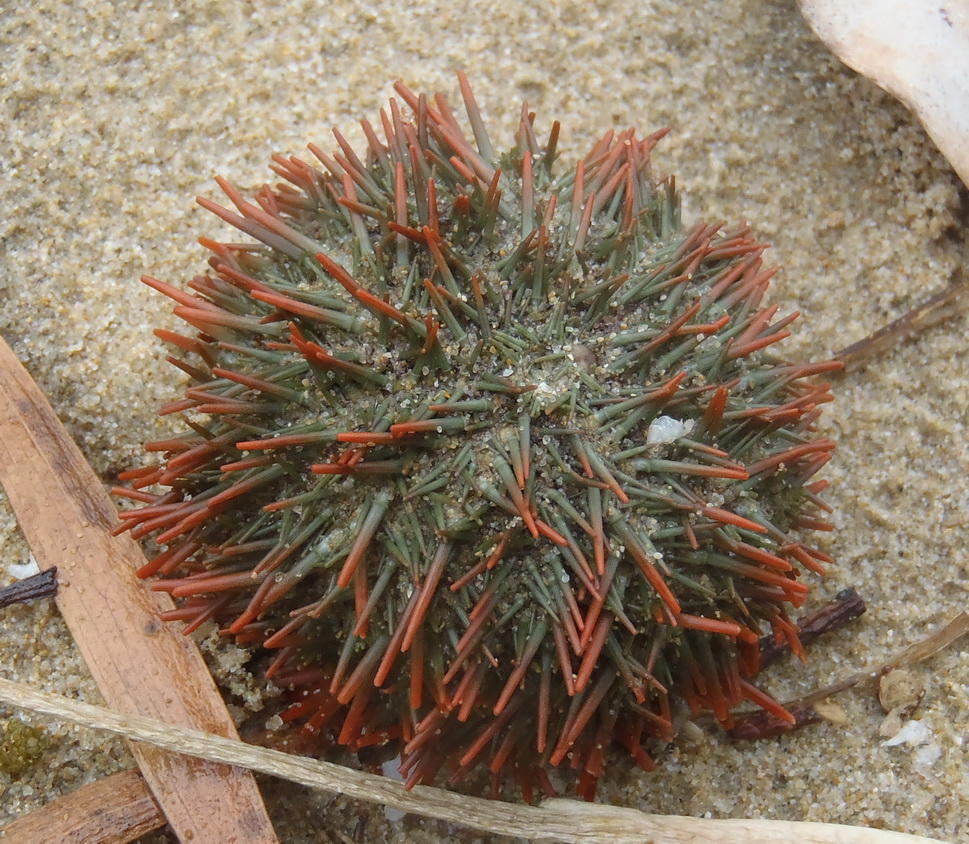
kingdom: Animalia
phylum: Echinodermata
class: Echinoidea
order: Camarodonta
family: Parechinidae
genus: Parechinus
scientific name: Parechinus angulosus
